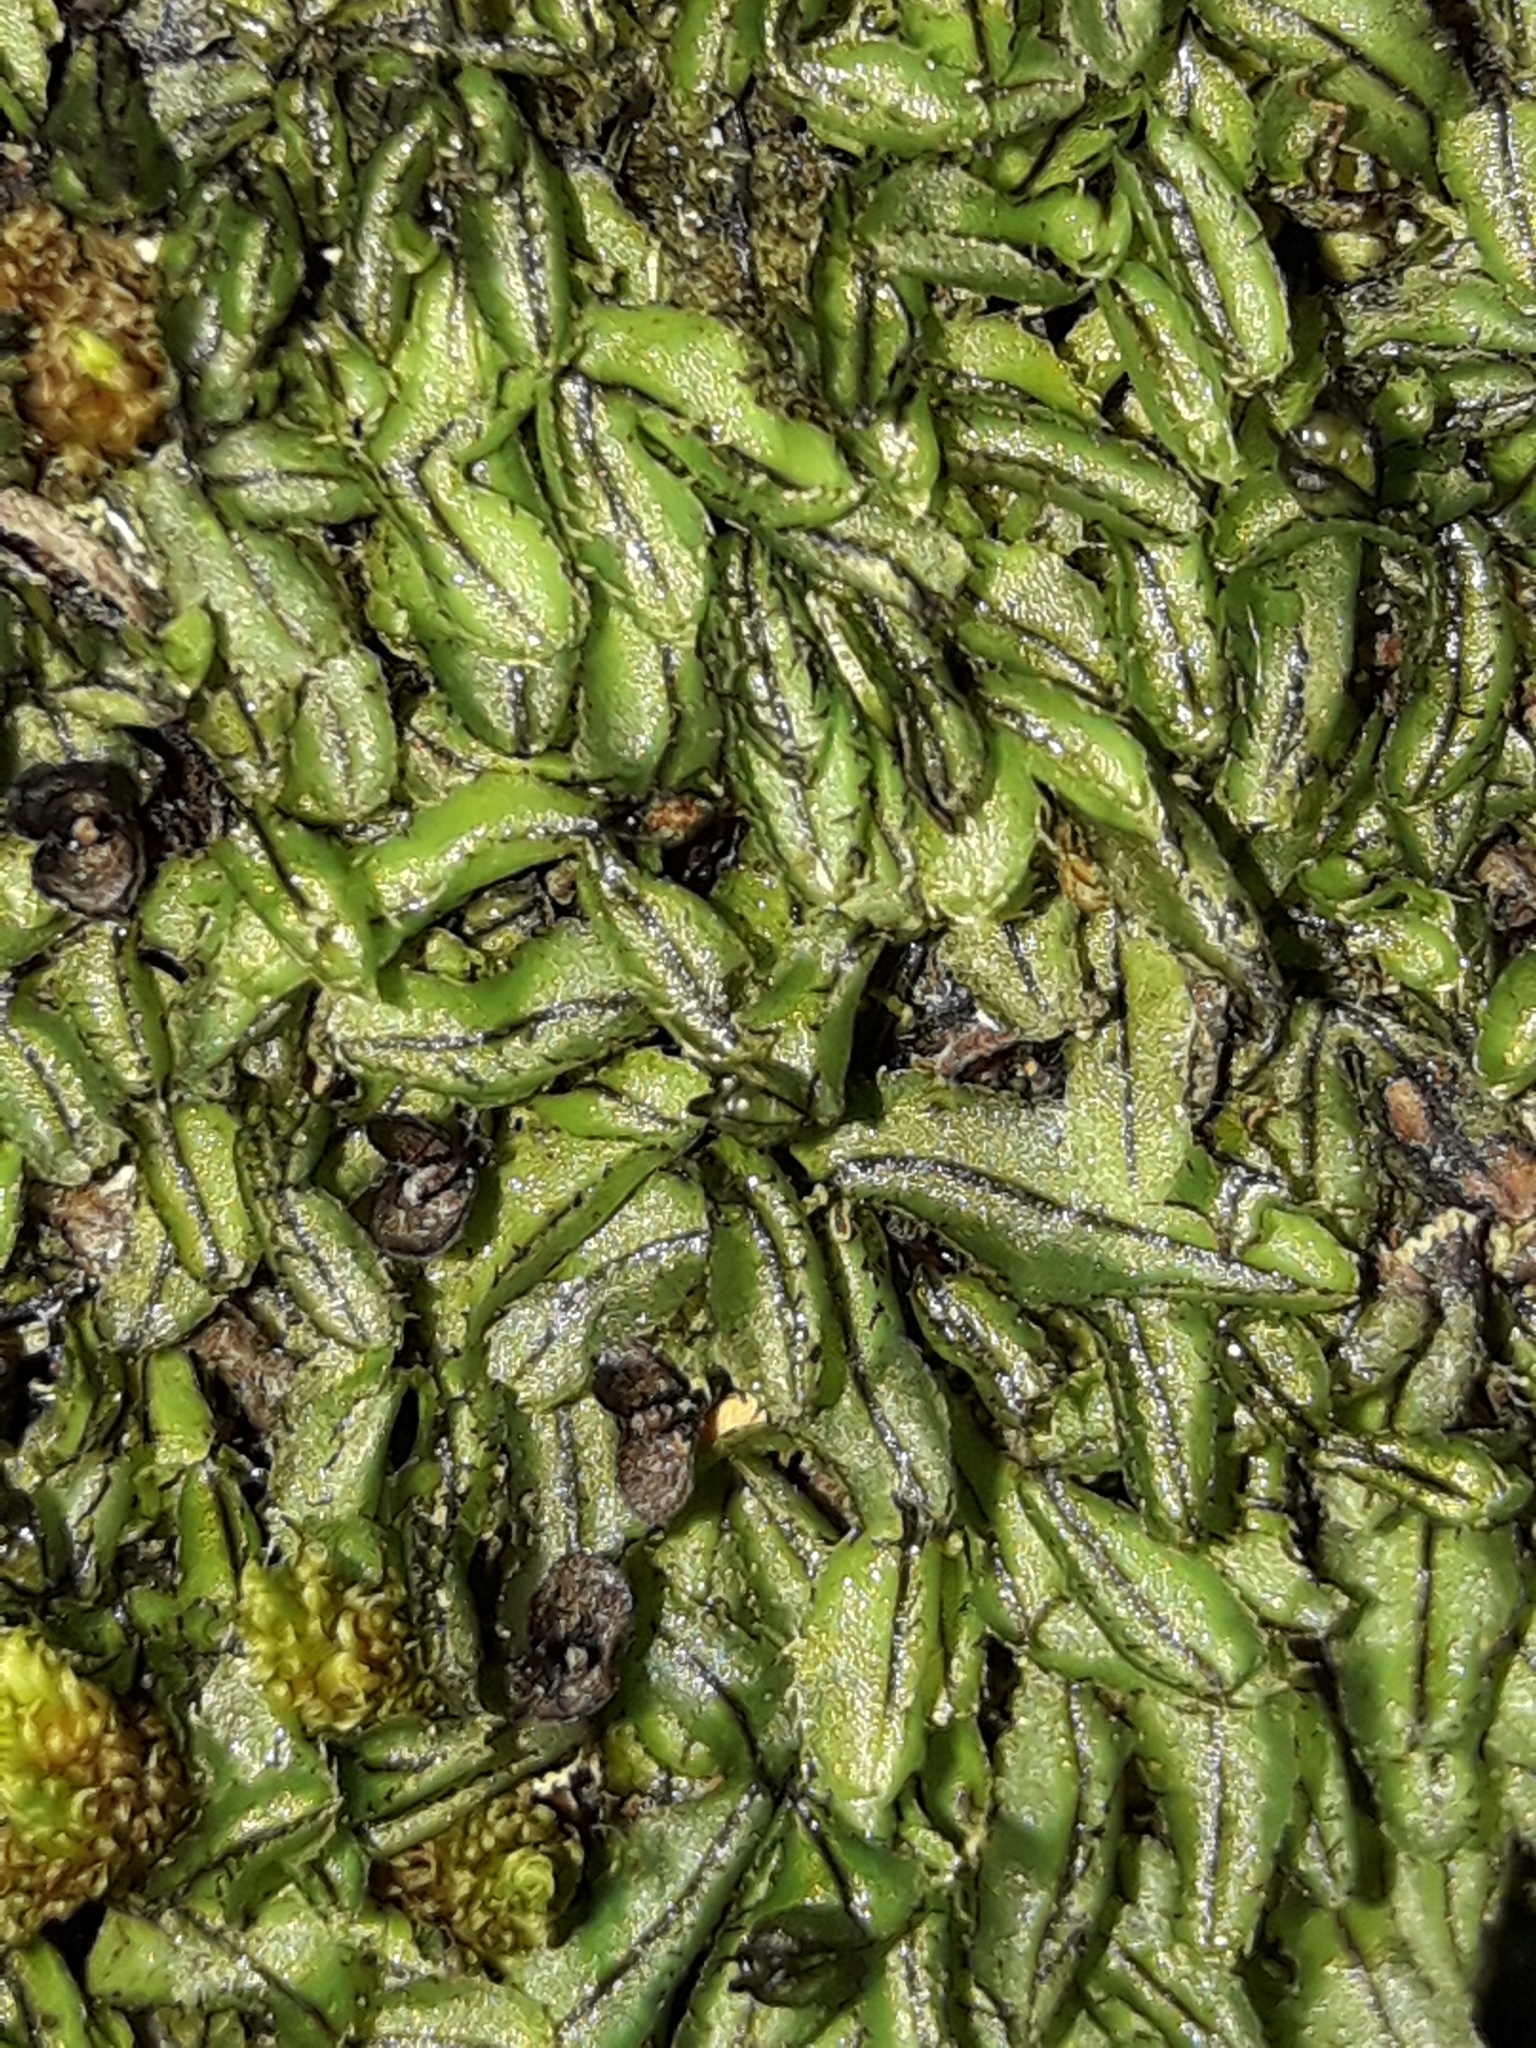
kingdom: Plantae
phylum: Tracheophyta
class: Polypodiopsida
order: Hymenophyllales
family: Hymenophyllaceae
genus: Hymenophyllum
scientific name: Hymenophyllum armstrongii
